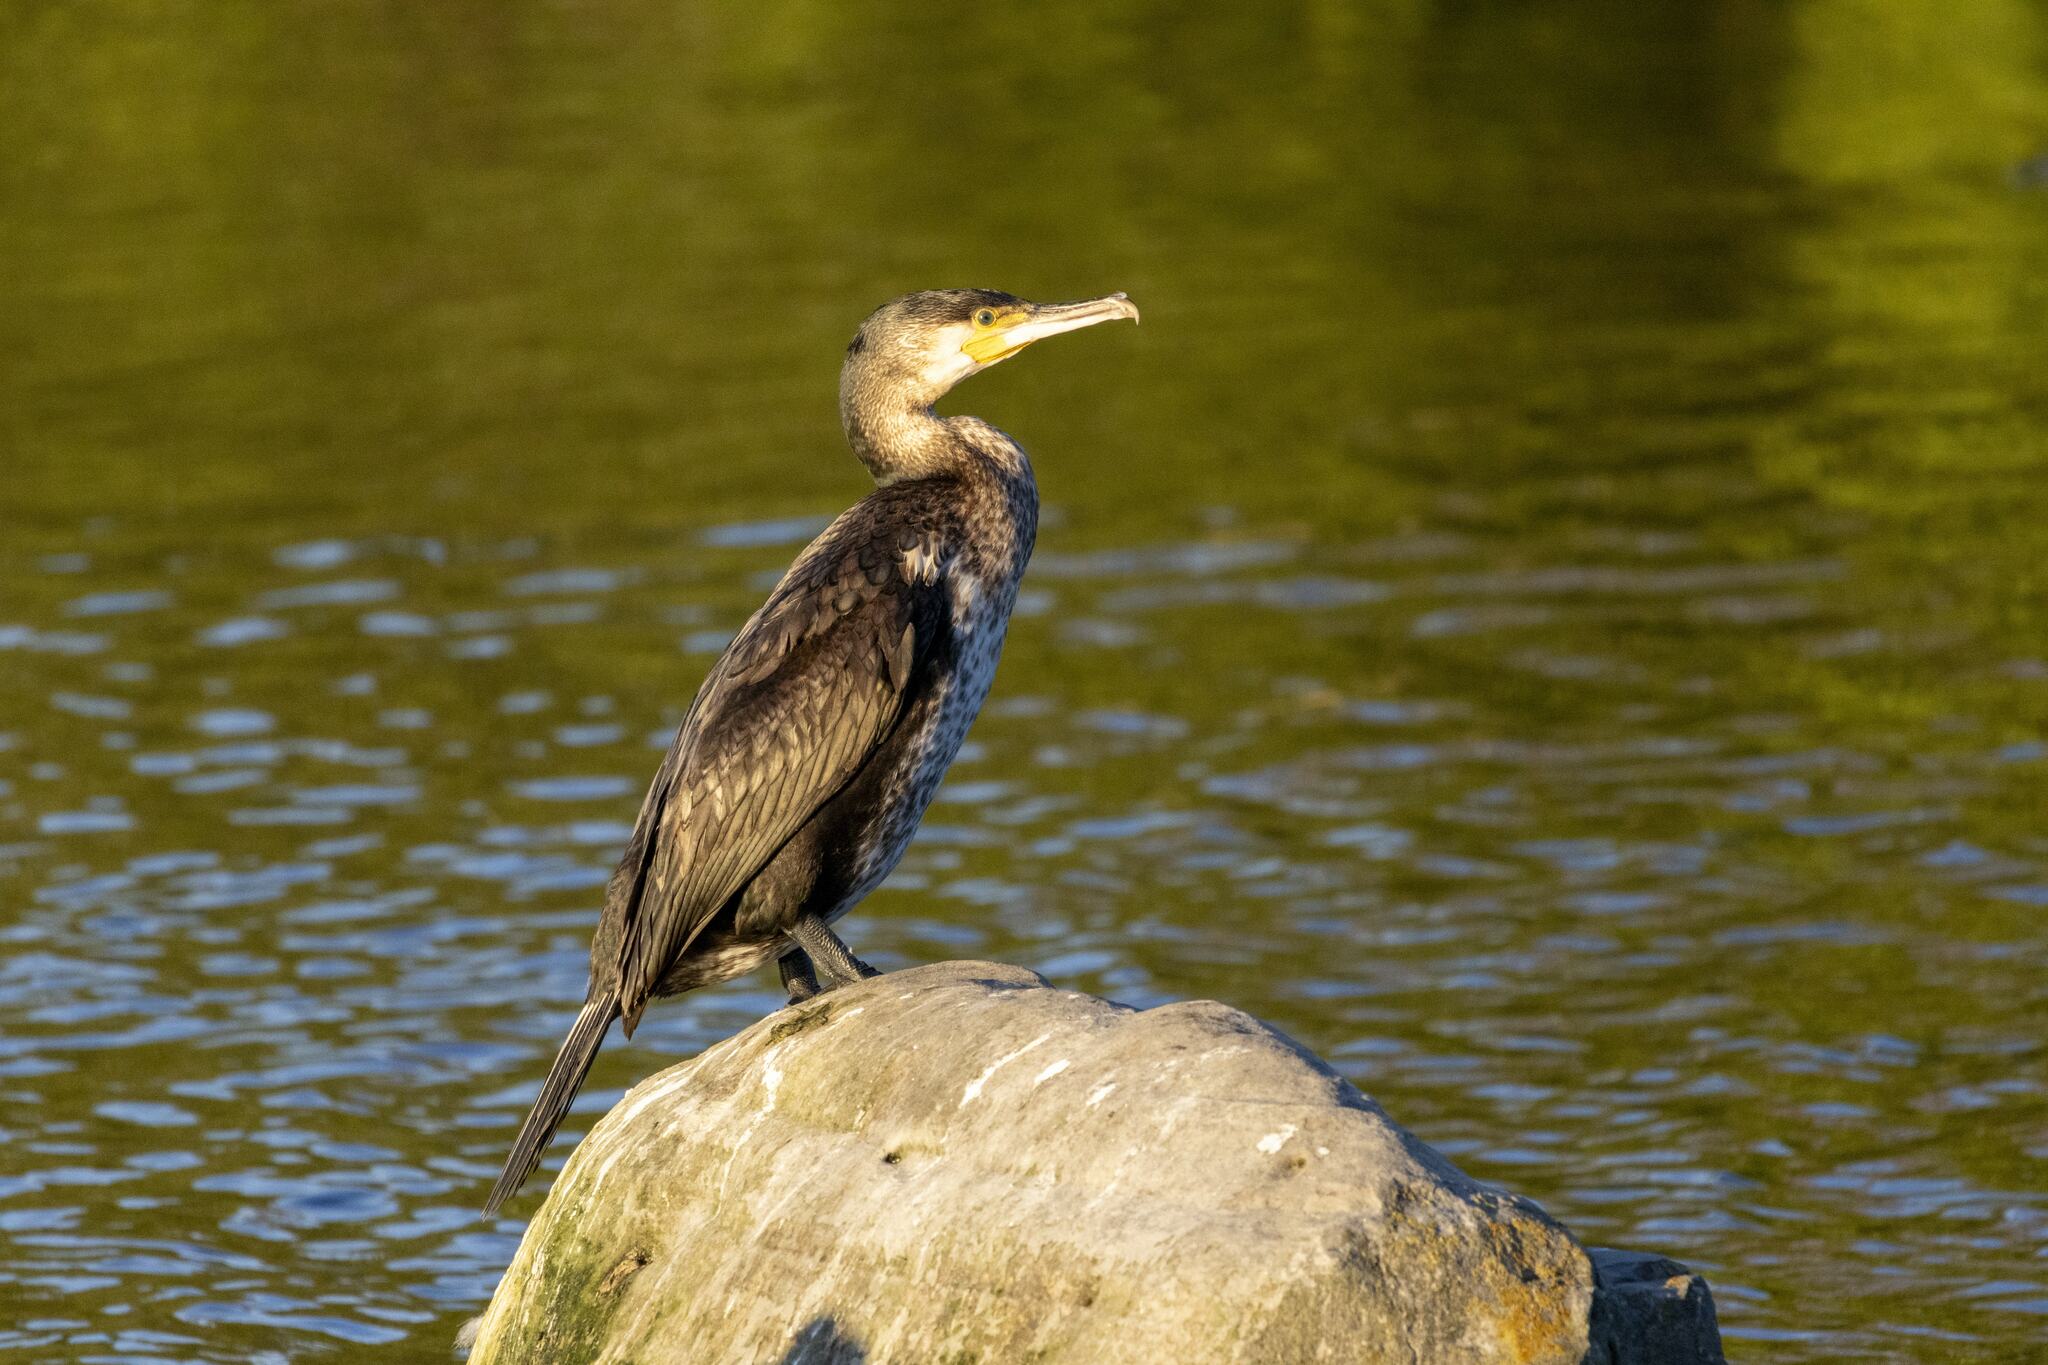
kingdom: Animalia
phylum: Chordata
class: Aves
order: Suliformes
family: Phalacrocoracidae
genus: Phalacrocorax
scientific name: Phalacrocorax carbo
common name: Great cormorant
